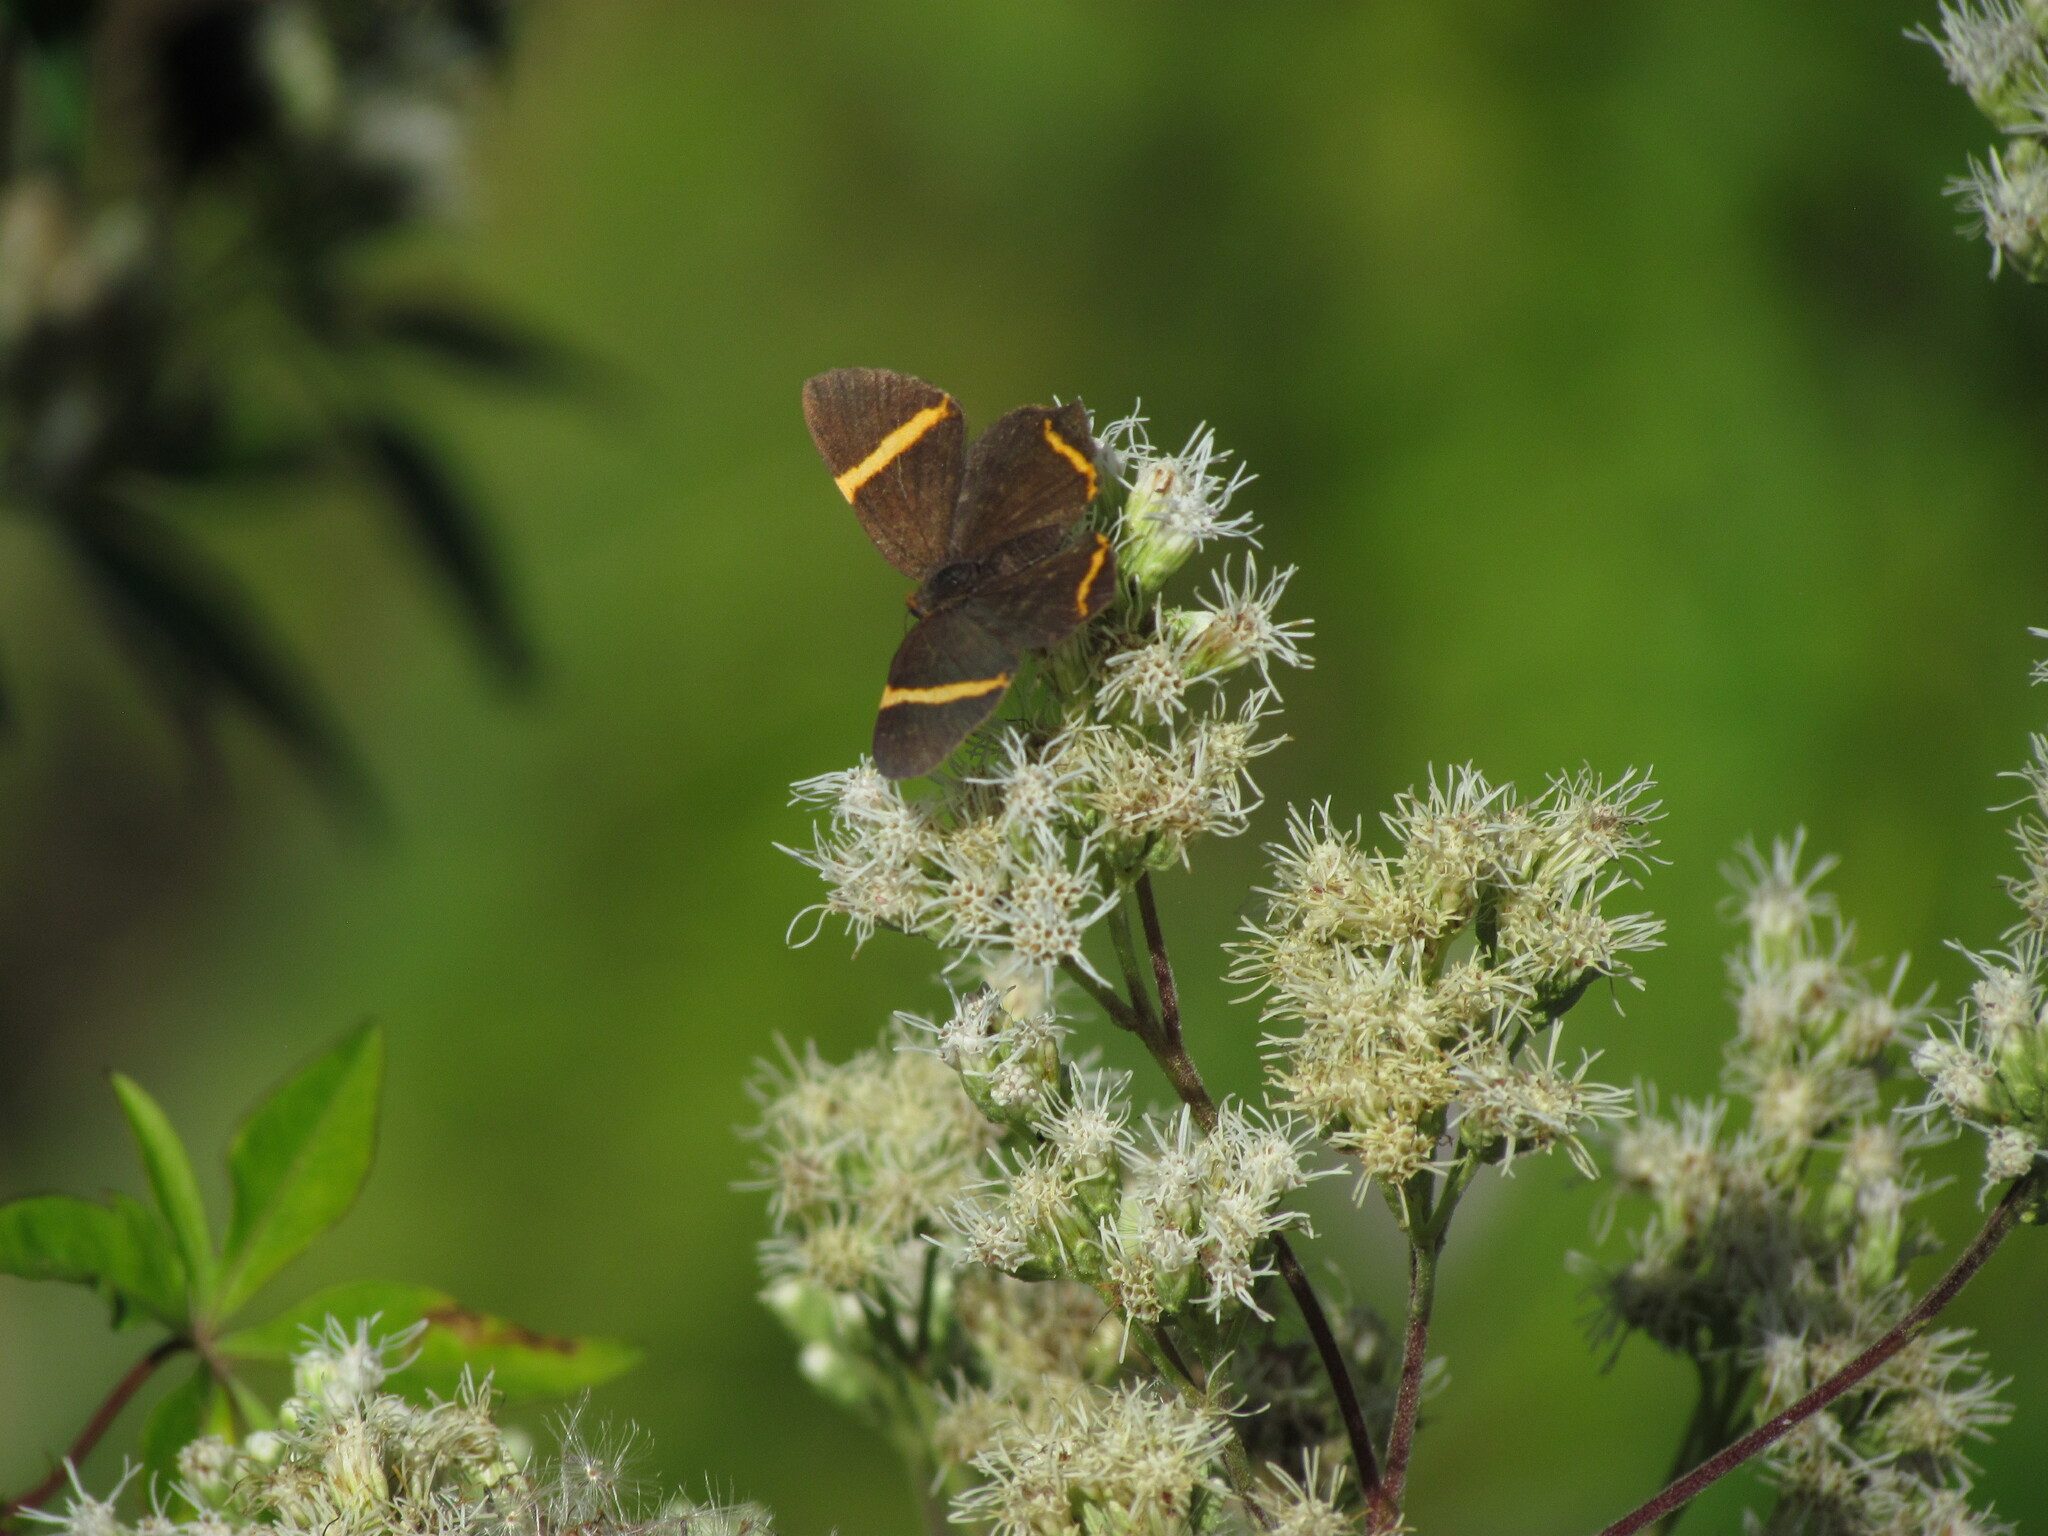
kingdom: Animalia
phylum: Arthropoda
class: Insecta
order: Lepidoptera
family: Riodinidae
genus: Riodina
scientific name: Riodina lysippoides
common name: Little dancer metalmark
